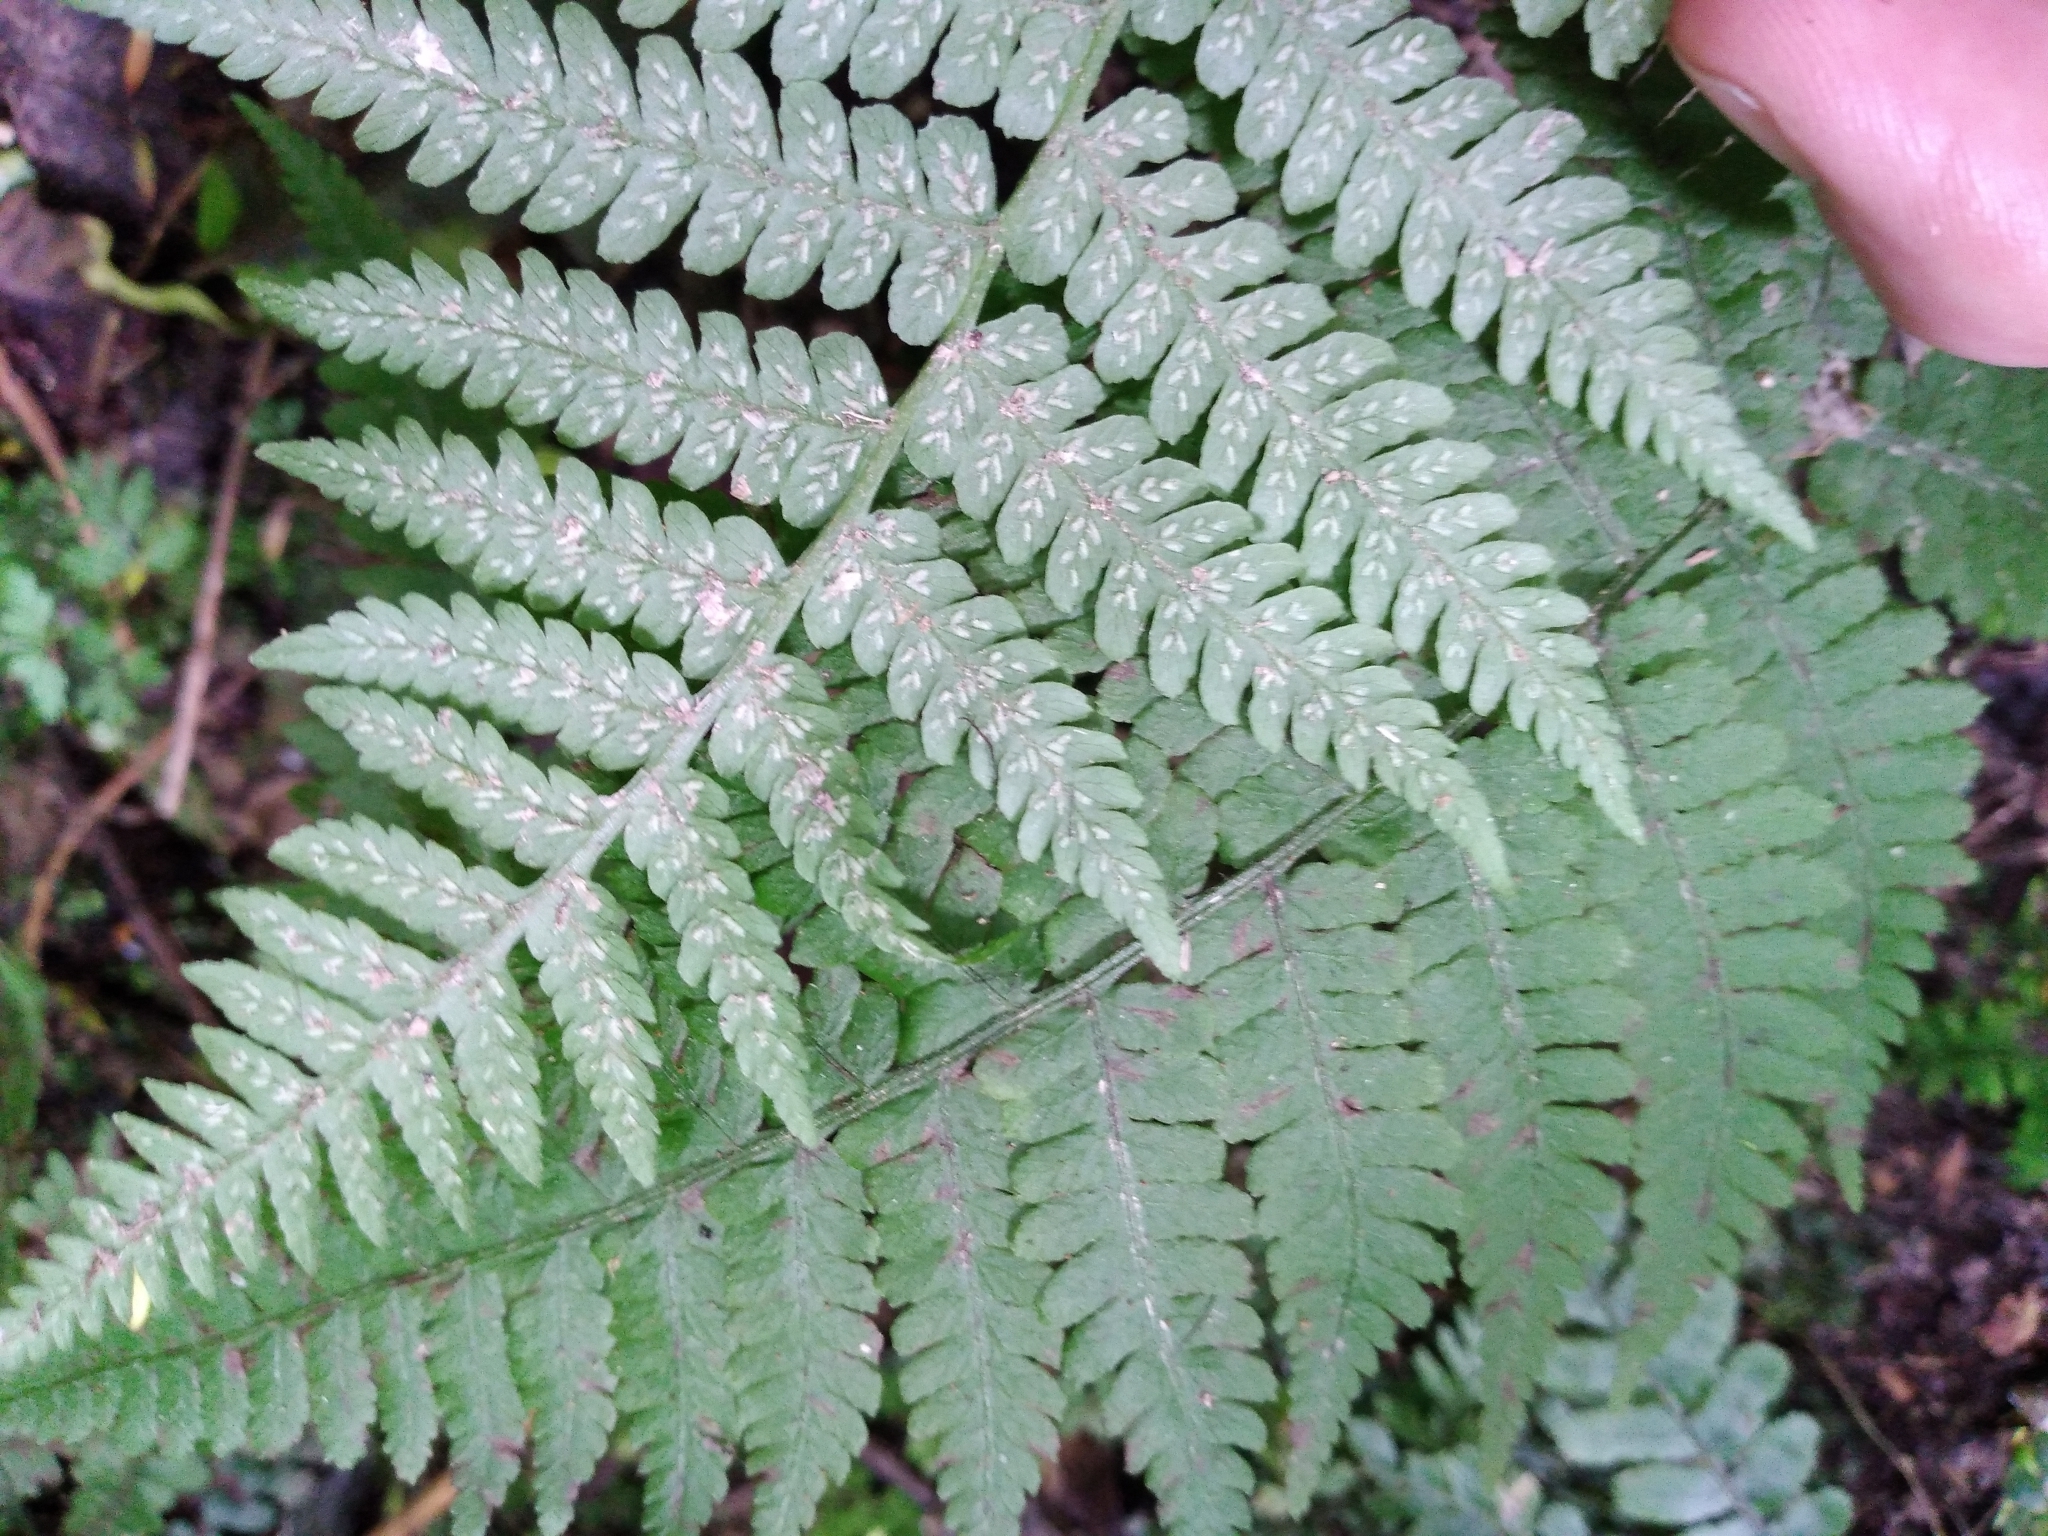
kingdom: Plantae
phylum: Tracheophyta
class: Polypodiopsida
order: Polypodiales
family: Athyriaceae
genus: Deparia
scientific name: Deparia petersenii
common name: Japanese false spleenwort
